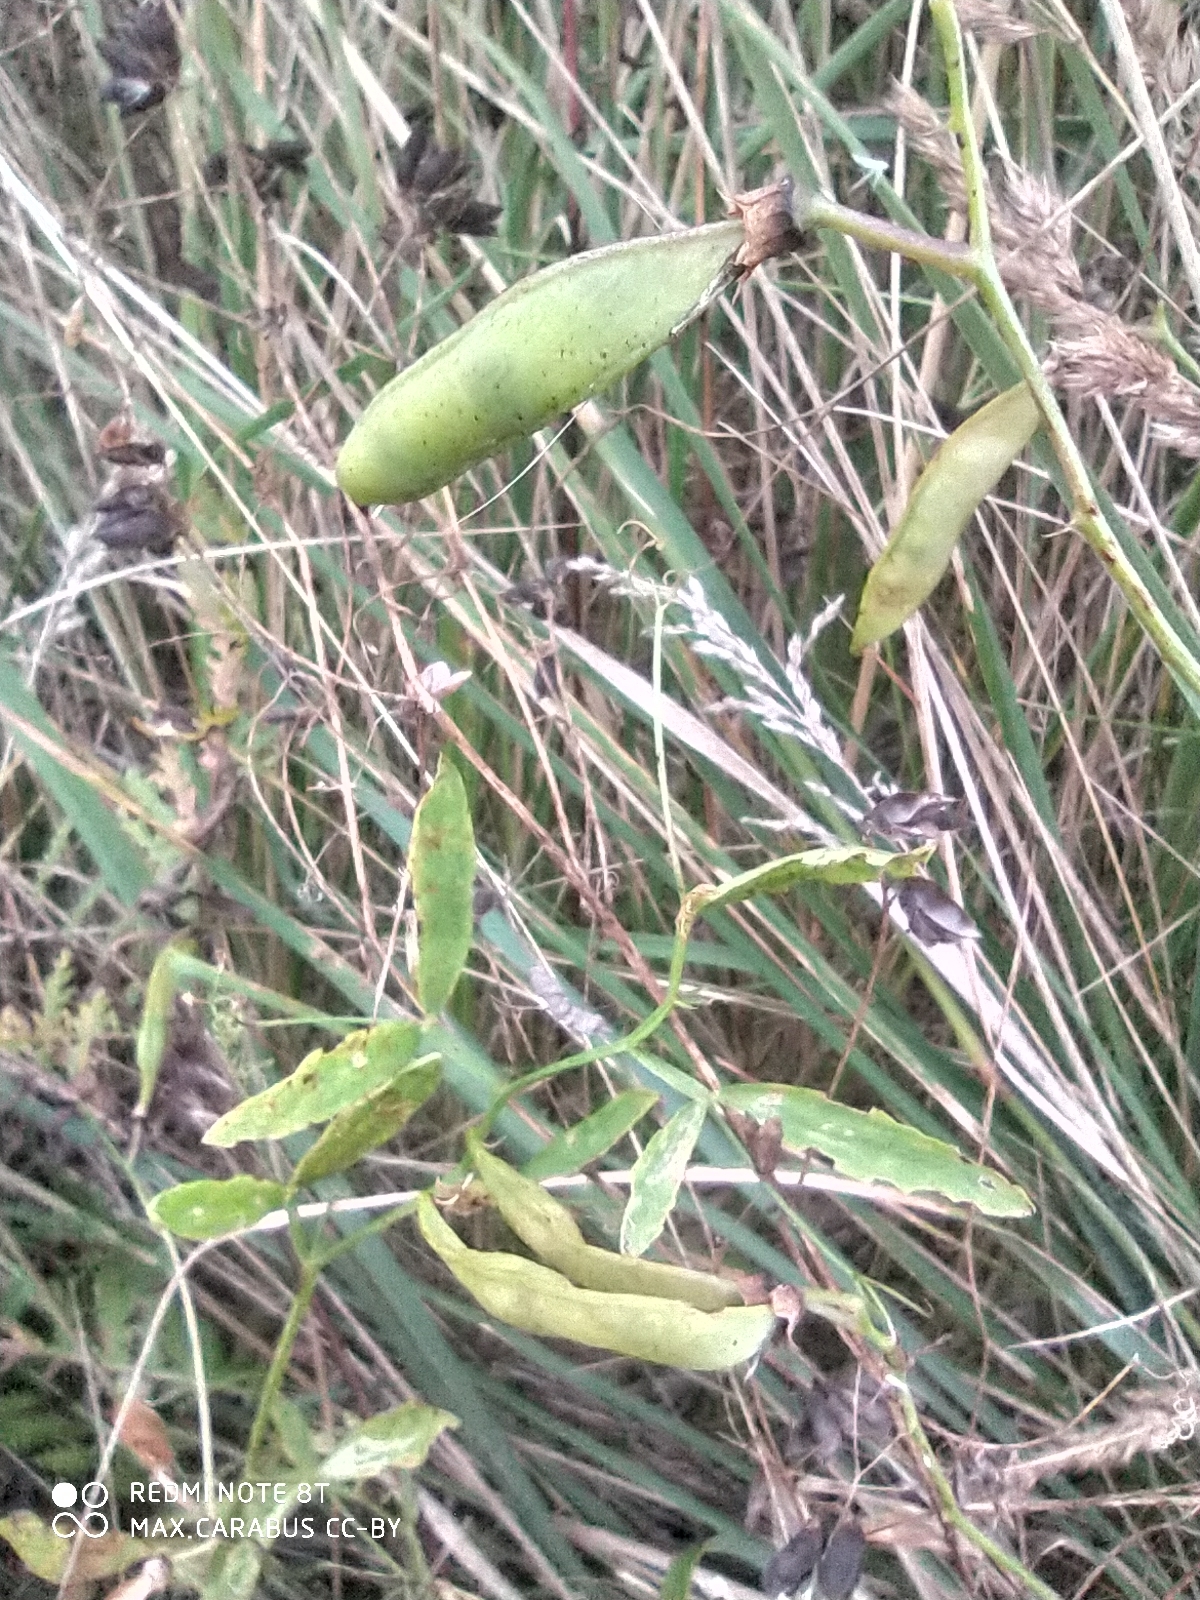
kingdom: Plantae
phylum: Tracheophyta
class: Magnoliopsida
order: Fabales
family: Fabaceae
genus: Lathyrus
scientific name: Lathyrus sylvestris
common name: Flat pea
